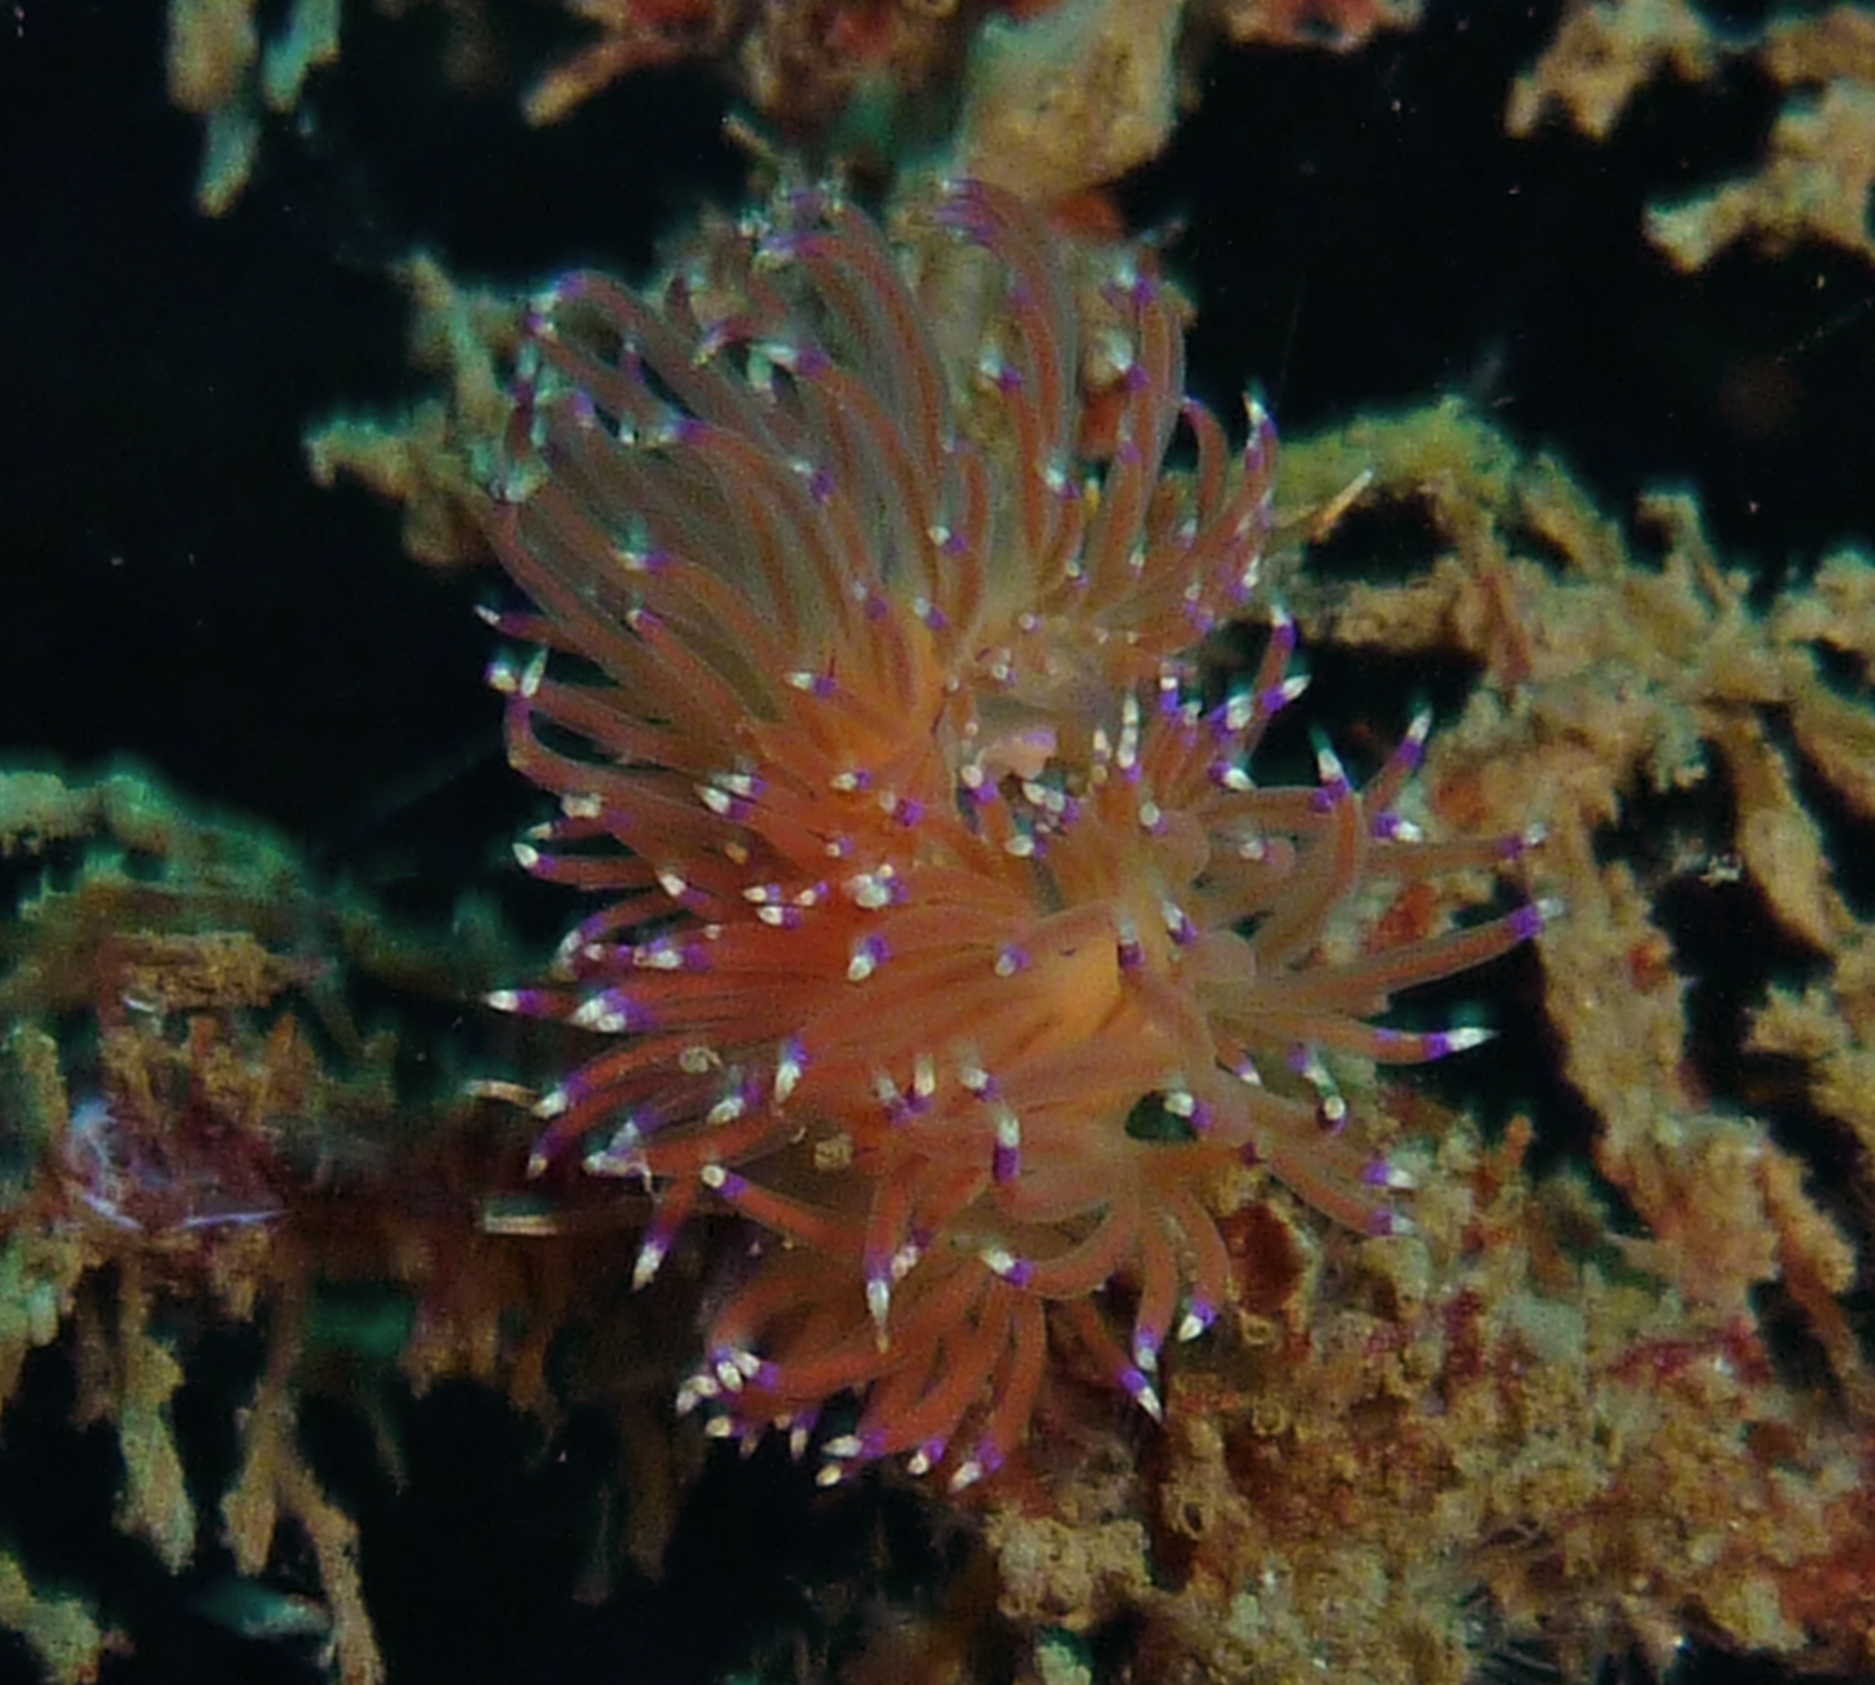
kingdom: Animalia
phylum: Mollusca
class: Gastropoda
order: Nudibranchia
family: Unidentiidae
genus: Unidentia
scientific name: Unidentia aliciae
